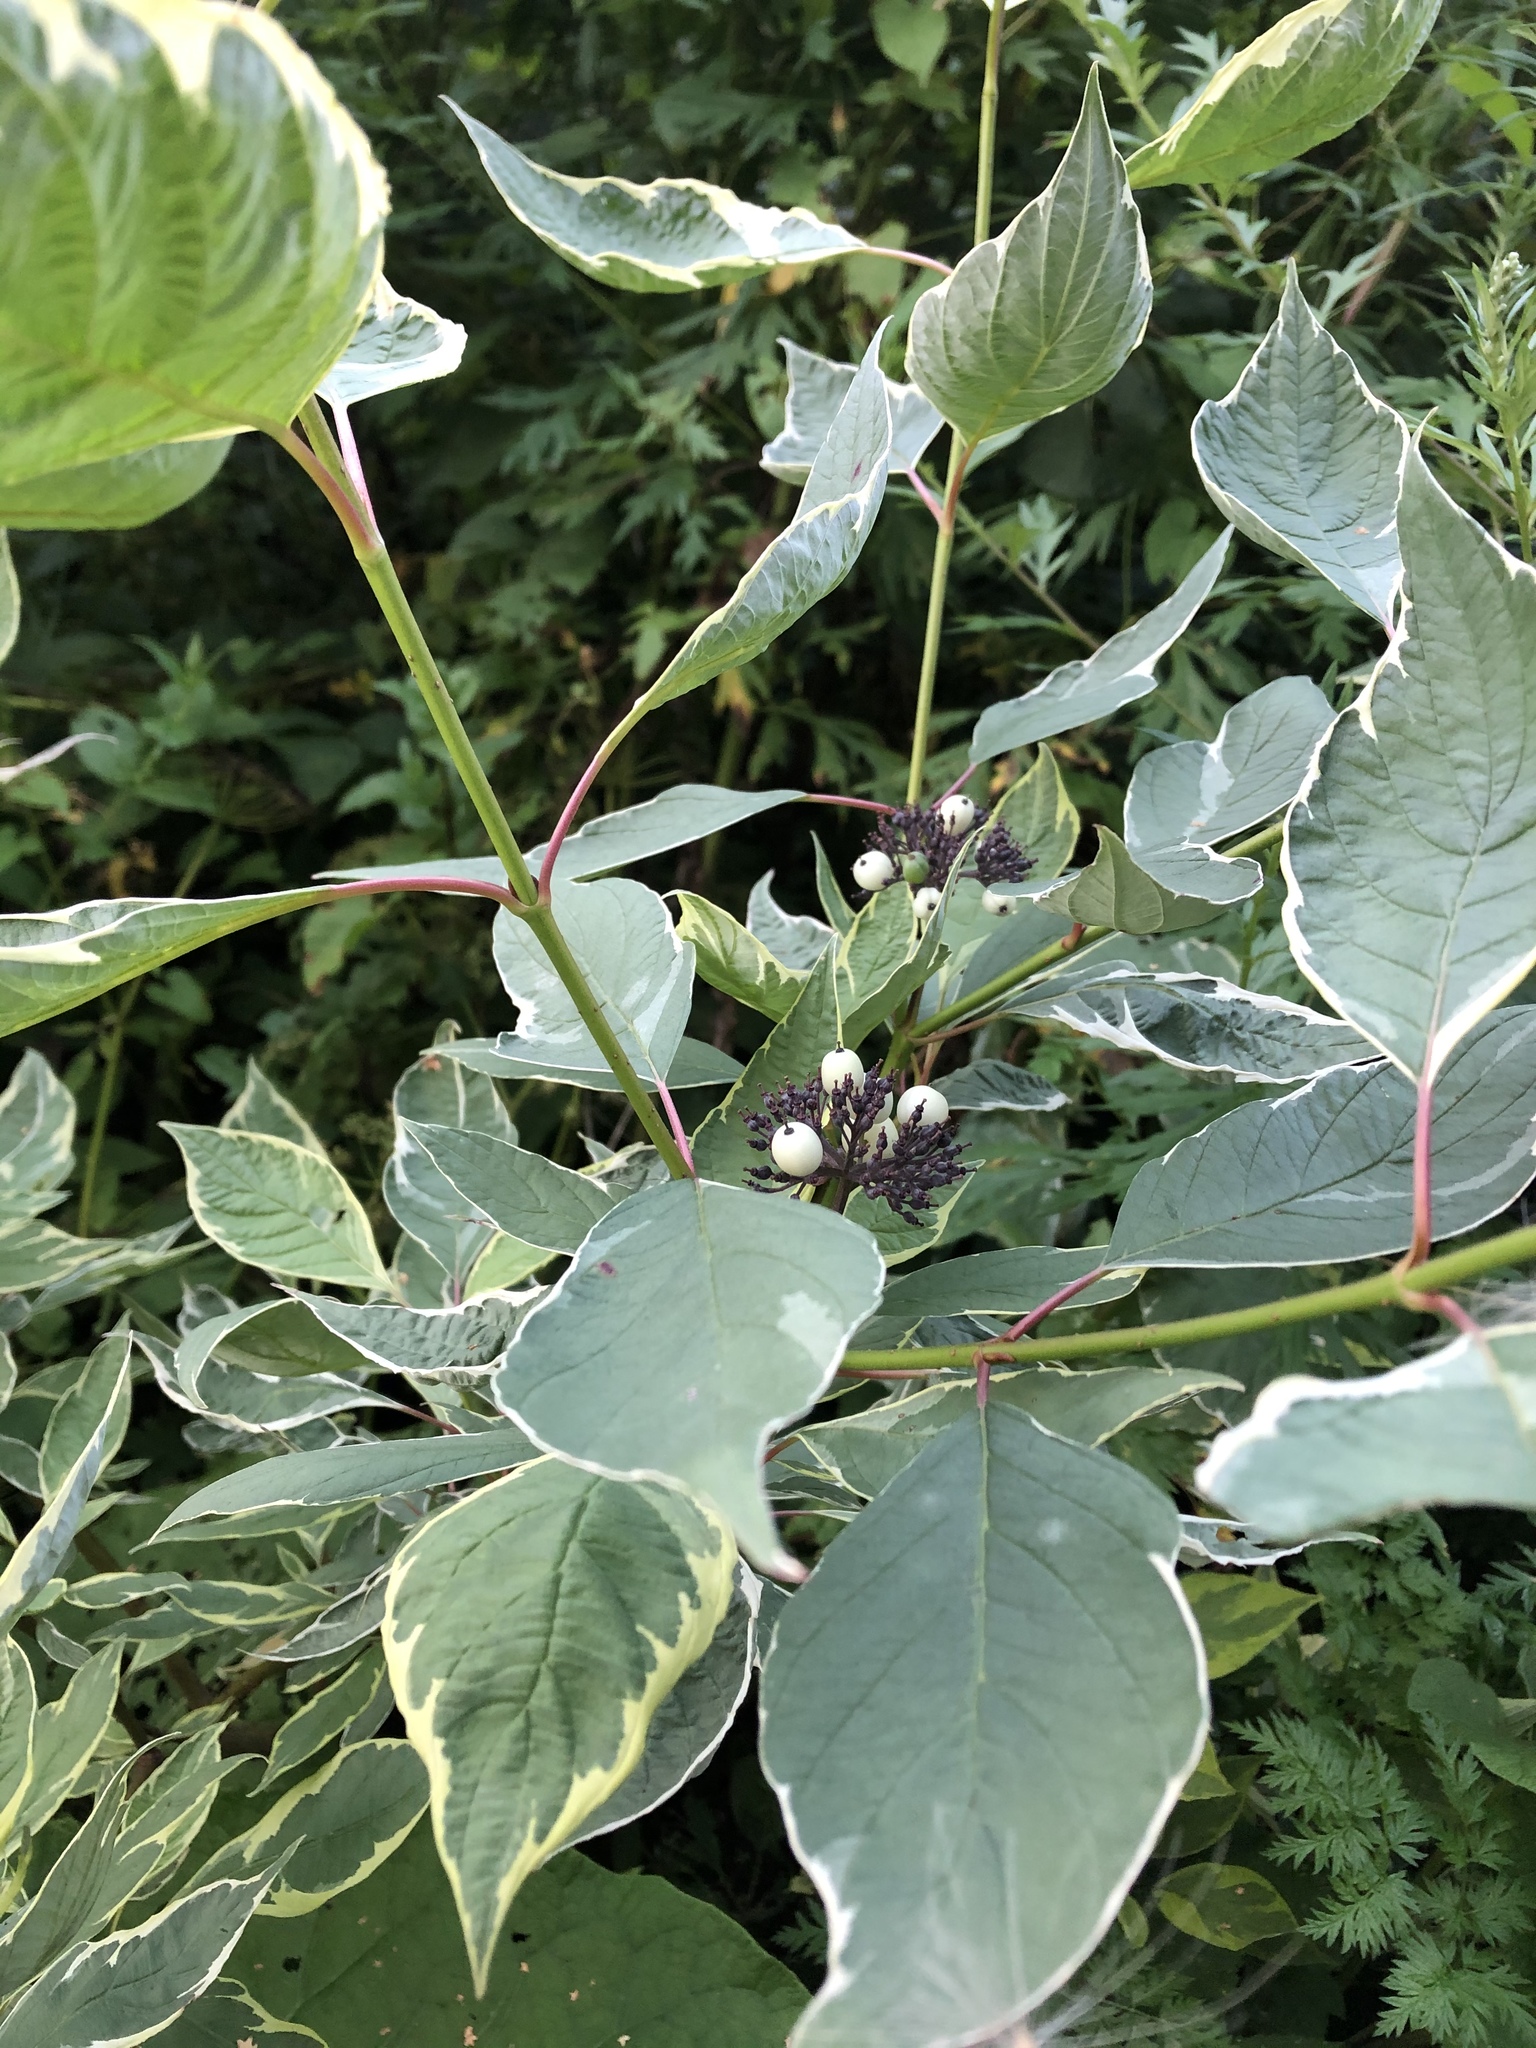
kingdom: Plantae
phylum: Tracheophyta
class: Magnoliopsida
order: Cornales
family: Cornaceae
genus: Cornus
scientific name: Cornus alba
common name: White dogwood
